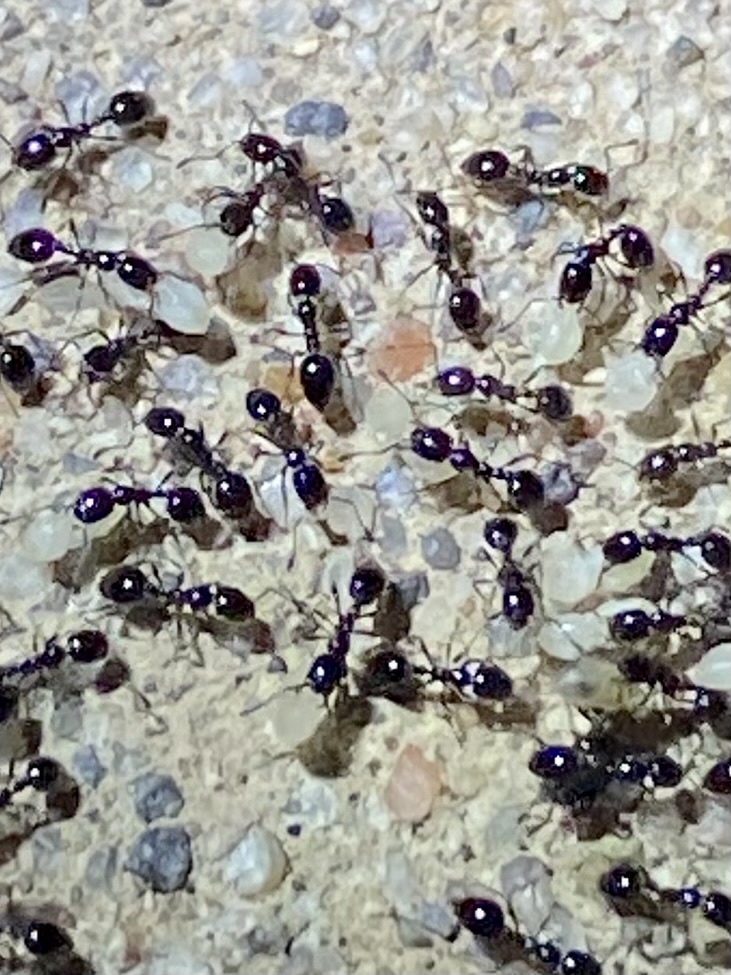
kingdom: Animalia
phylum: Arthropoda
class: Insecta
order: Hymenoptera
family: Formicidae
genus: Monomorium
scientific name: Monomorium
